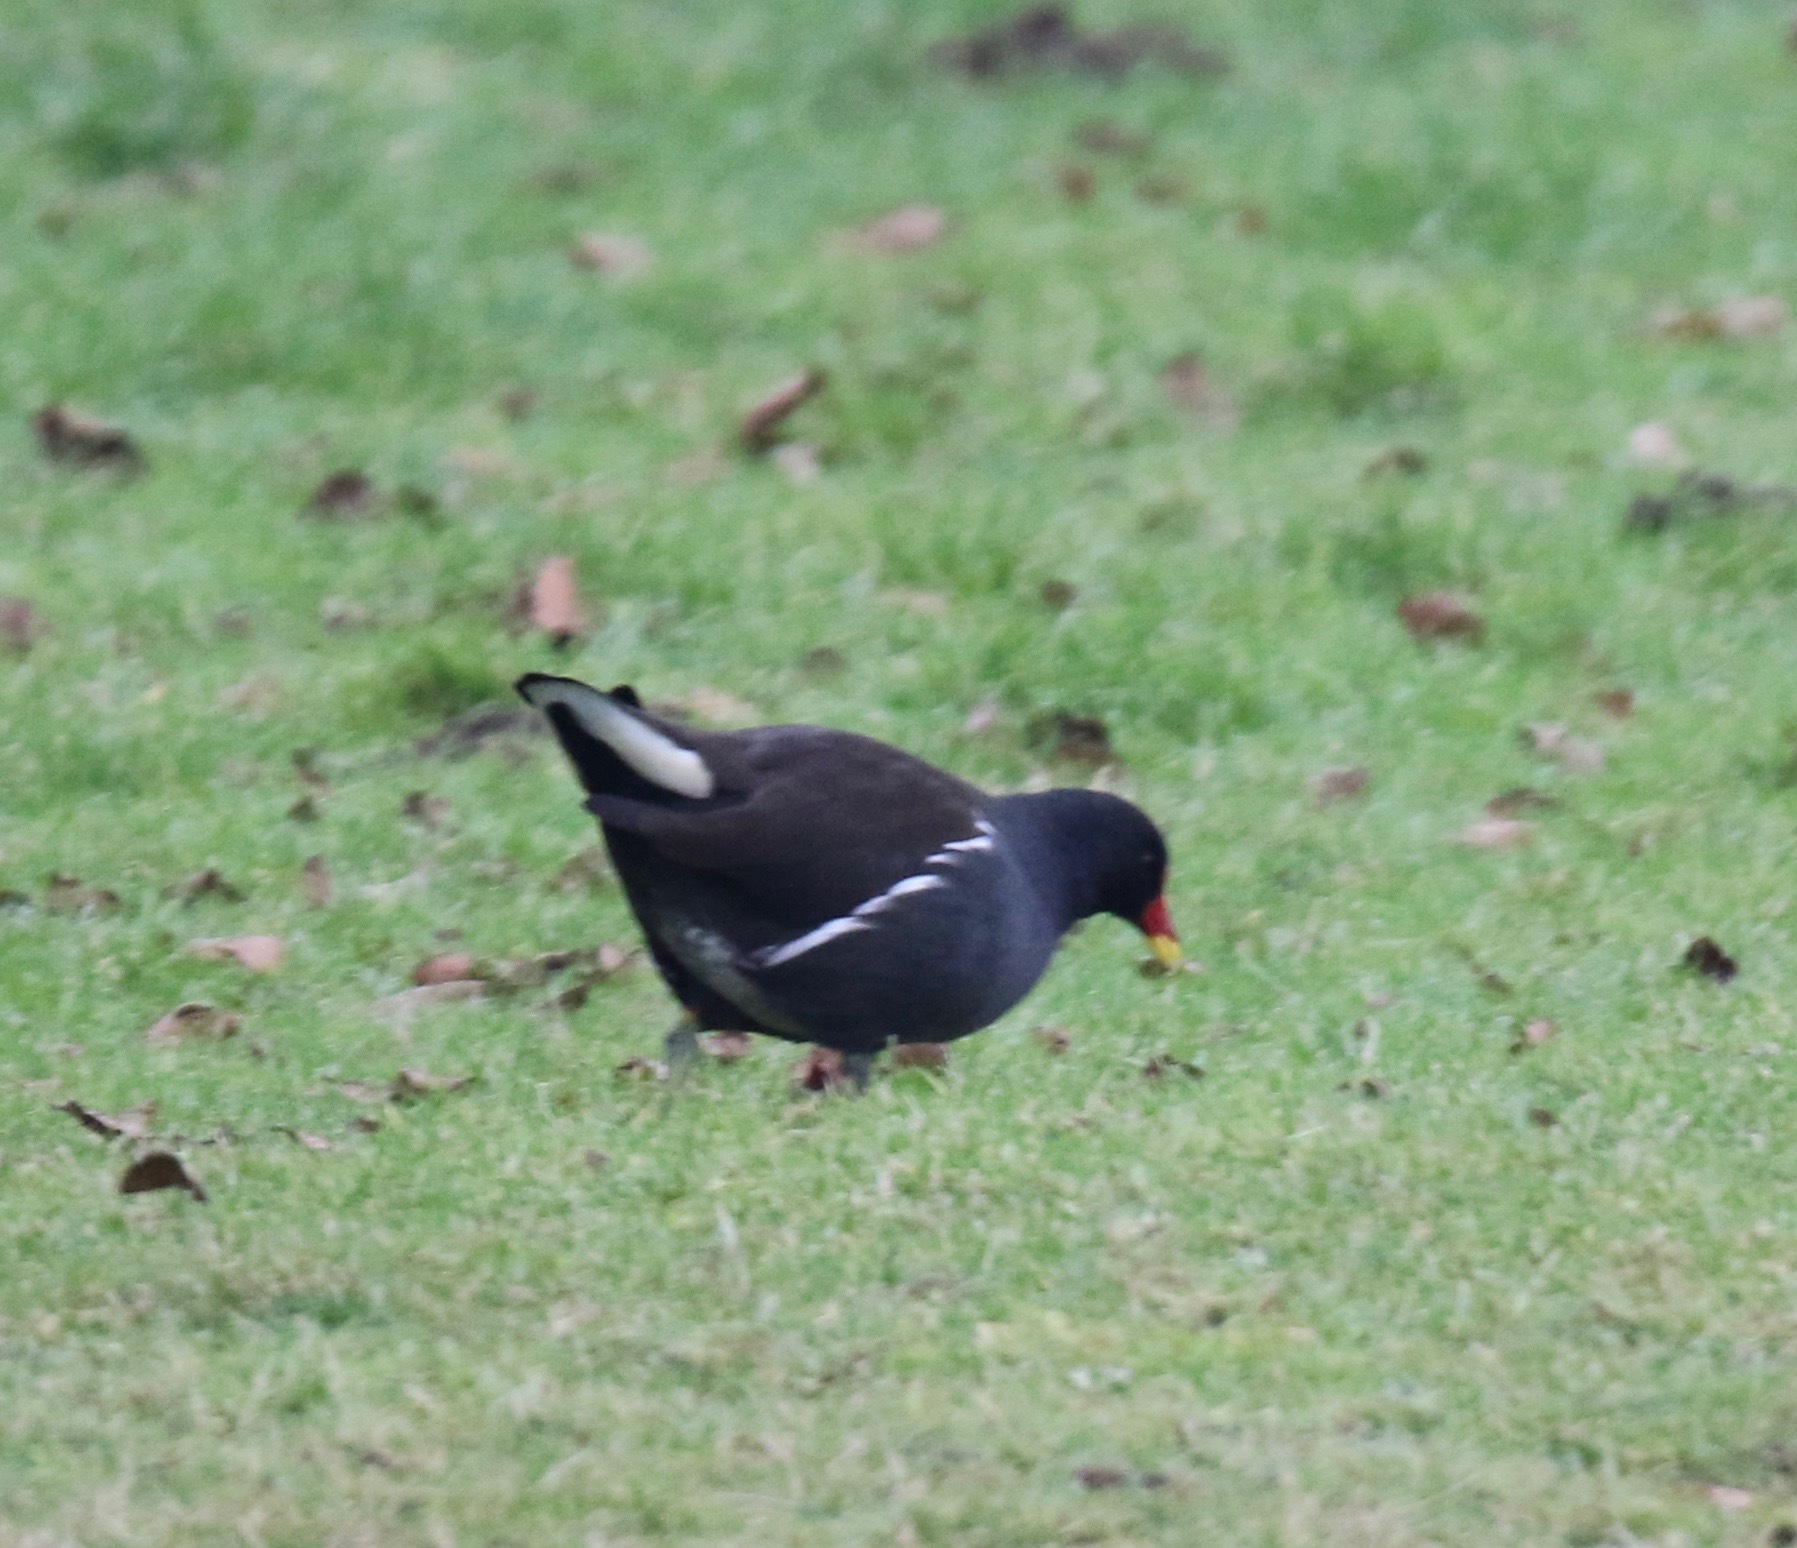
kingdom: Animalia
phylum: Chordata
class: Aves
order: Gruiformes
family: Rallidae
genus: Gallinula
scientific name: Gallinula chloropus
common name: Common moorhen
